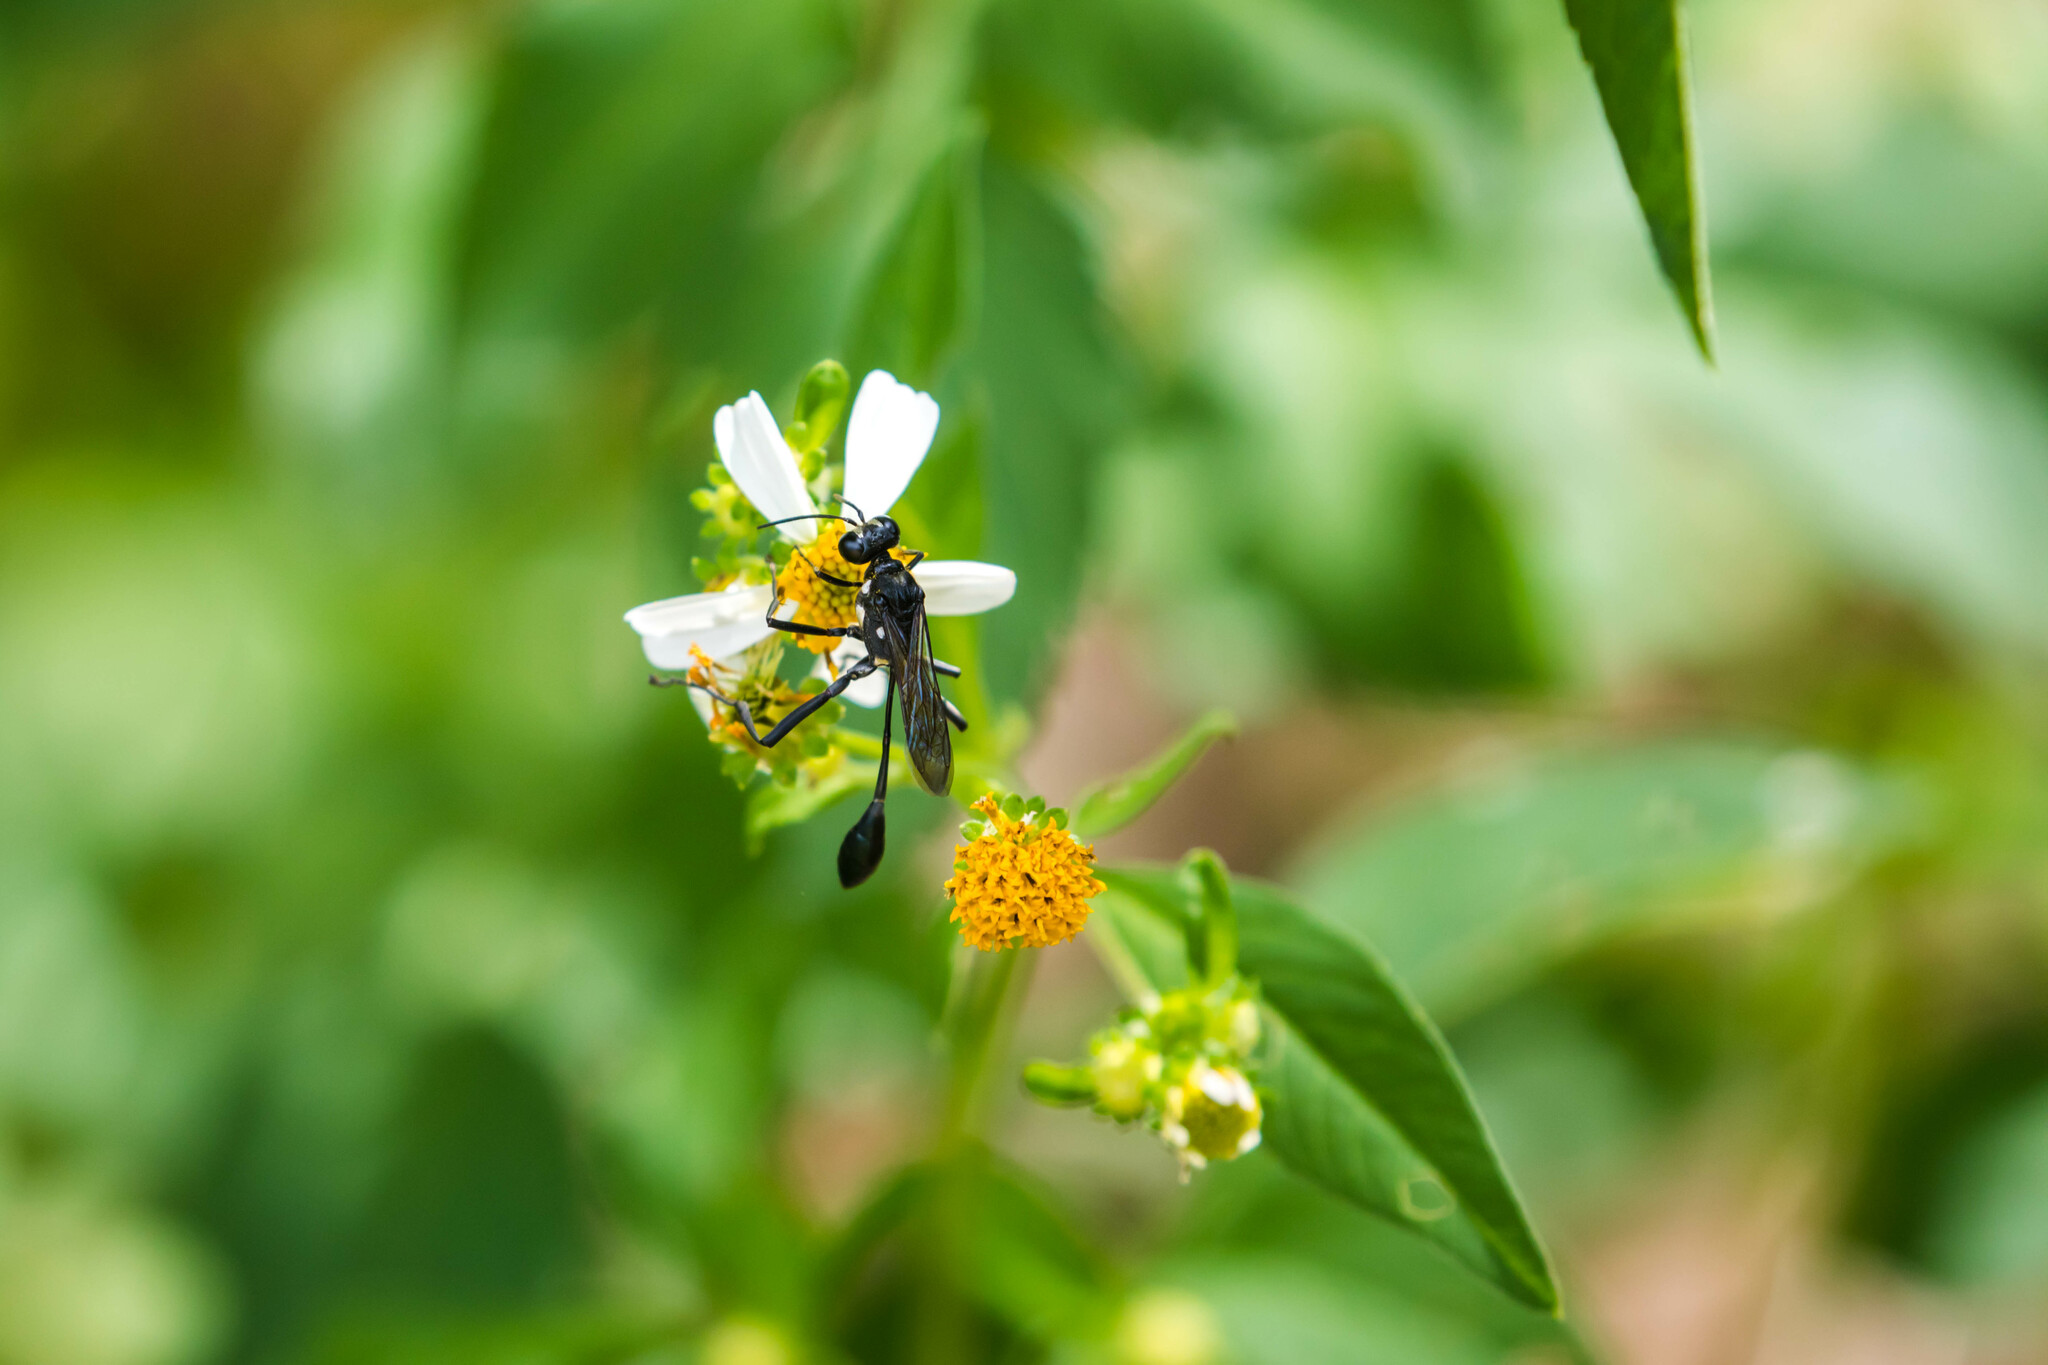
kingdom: Animalia
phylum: Arthropoda
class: Insecta
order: Hymenoptera
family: Sphecidae
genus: Eremnophila
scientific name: Eremnophila aureonotata
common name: Gold-marked thread-waisted wasp
